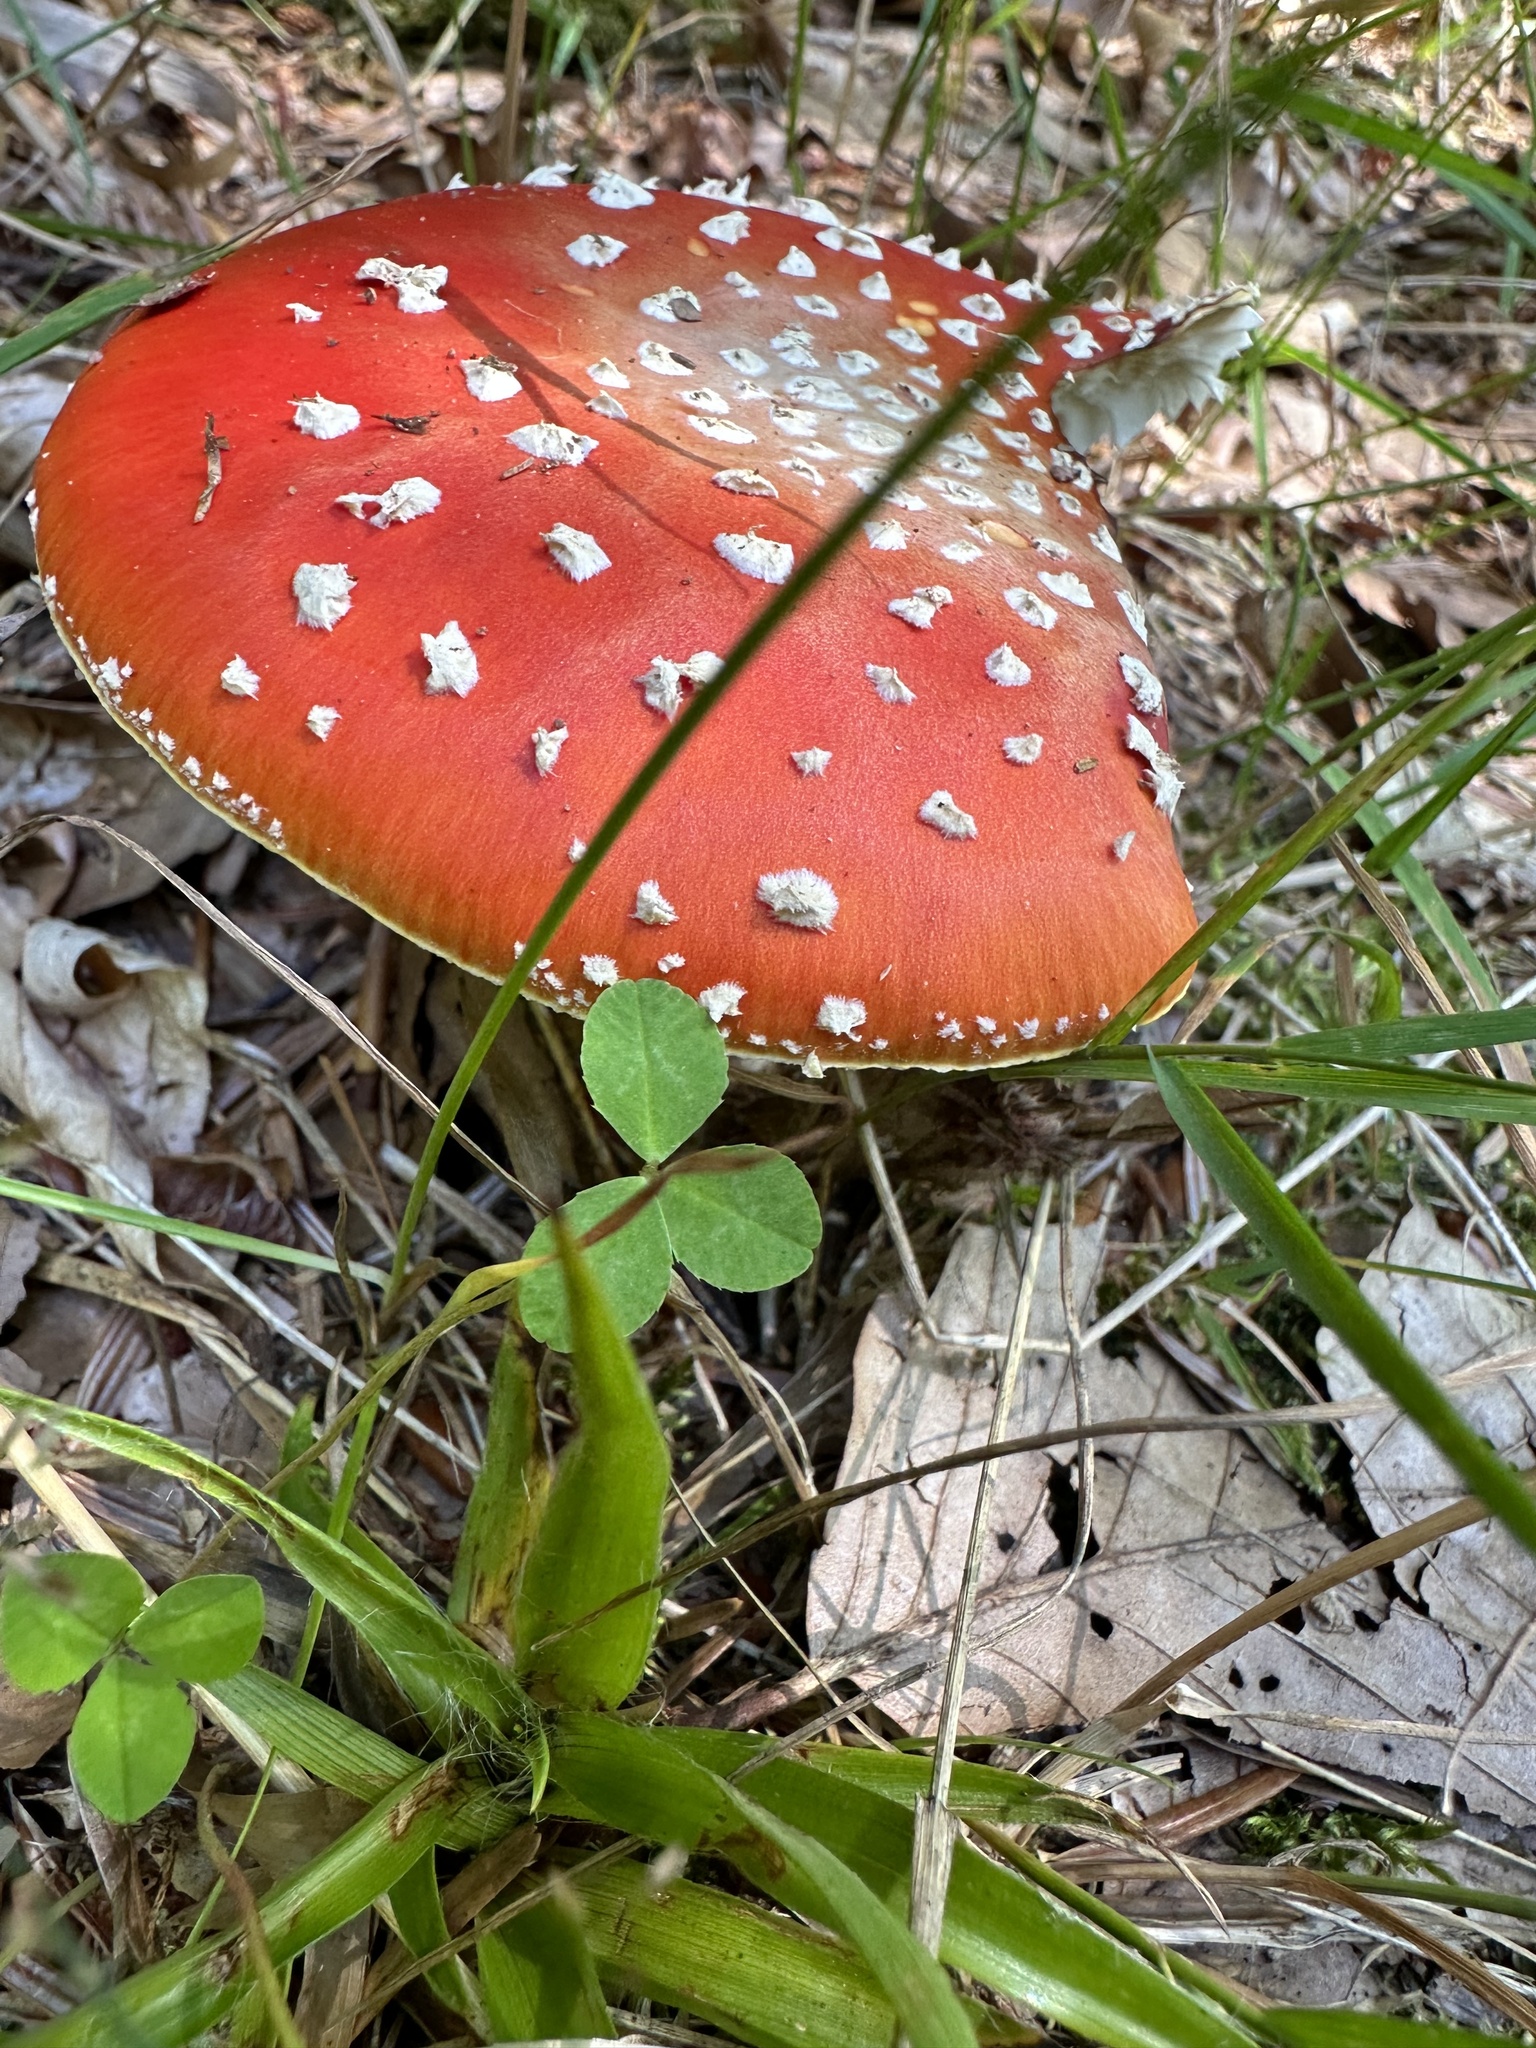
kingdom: Fungi
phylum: Basidiomycota
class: Agaricomycetes
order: Agaricales
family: Amanitaceae
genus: Amanita
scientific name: Amanita muscaria
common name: Fly agaric
